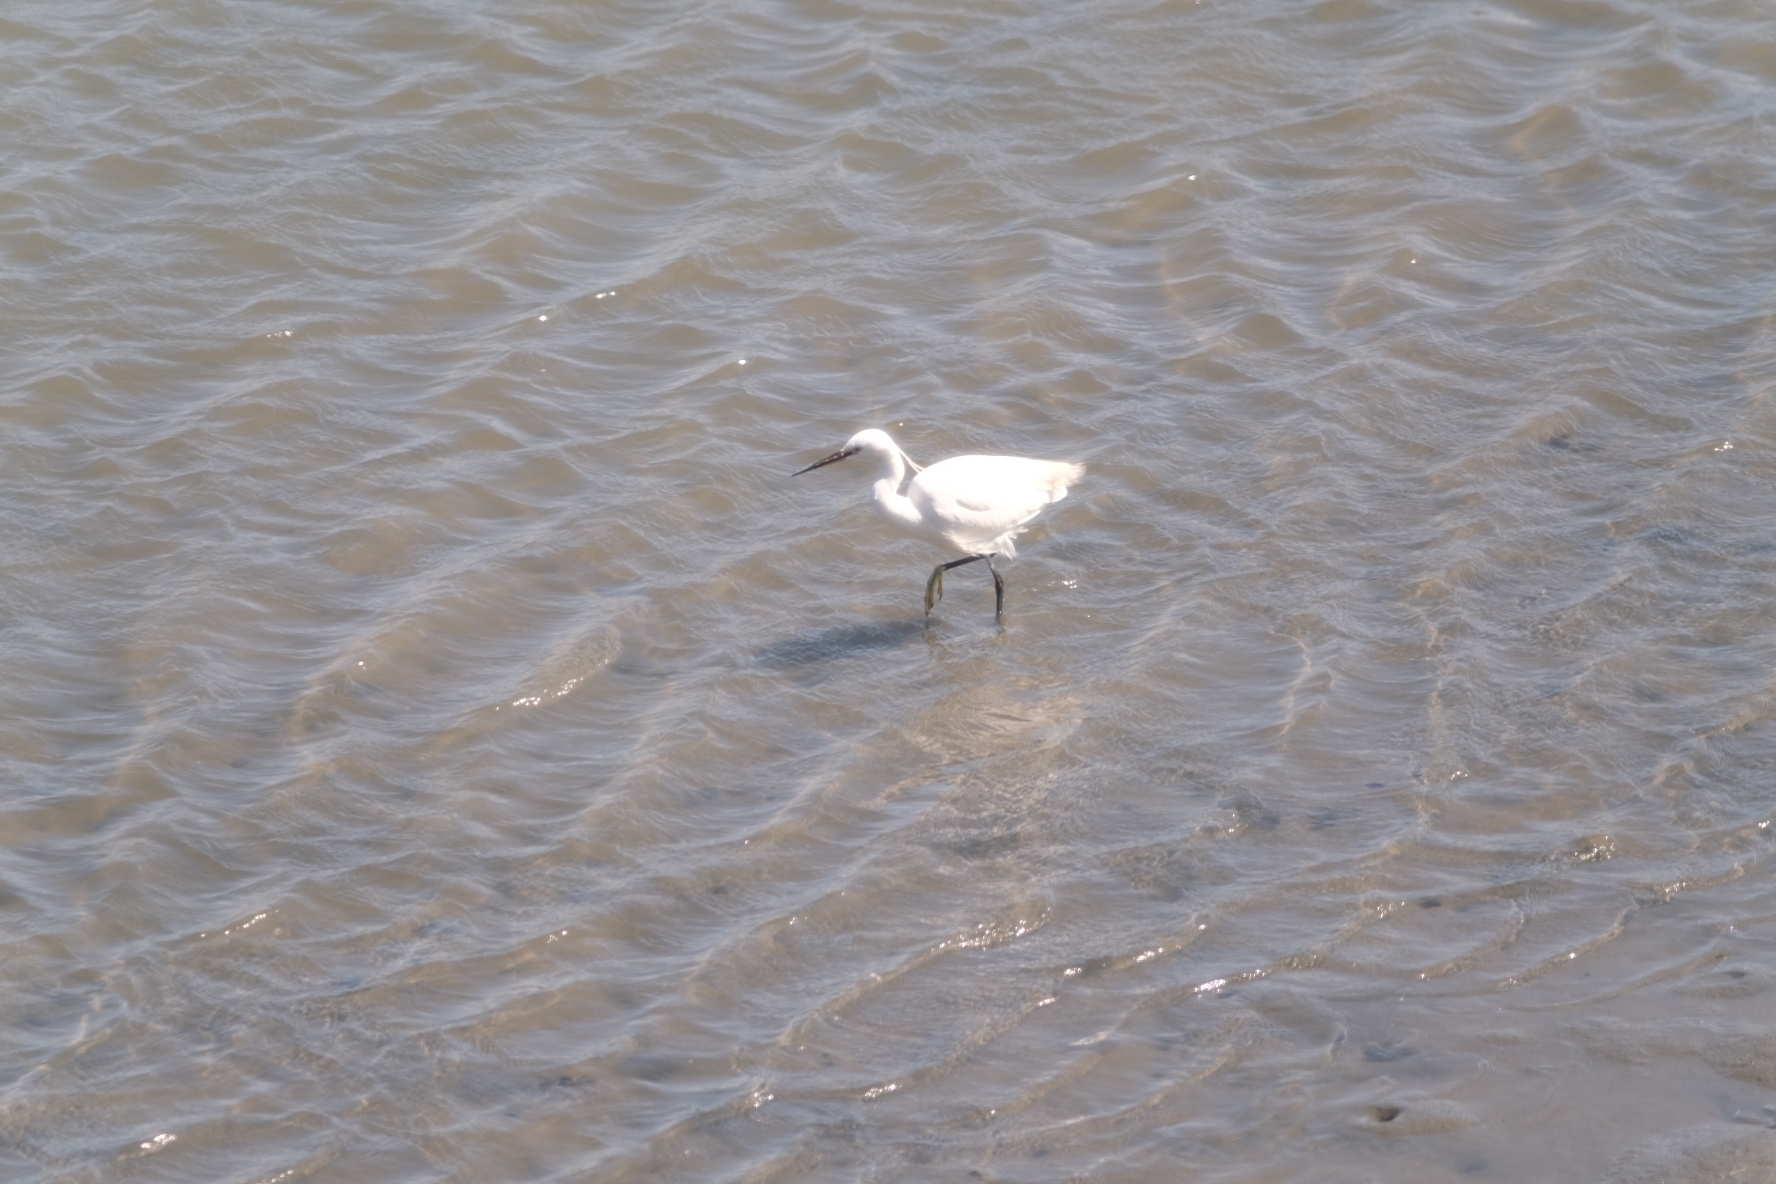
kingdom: Animalia
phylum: Chordata
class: Aves
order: Pelecaniformes
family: Ardeidae
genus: Egretta
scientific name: Egretta garzetta
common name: Little egret
